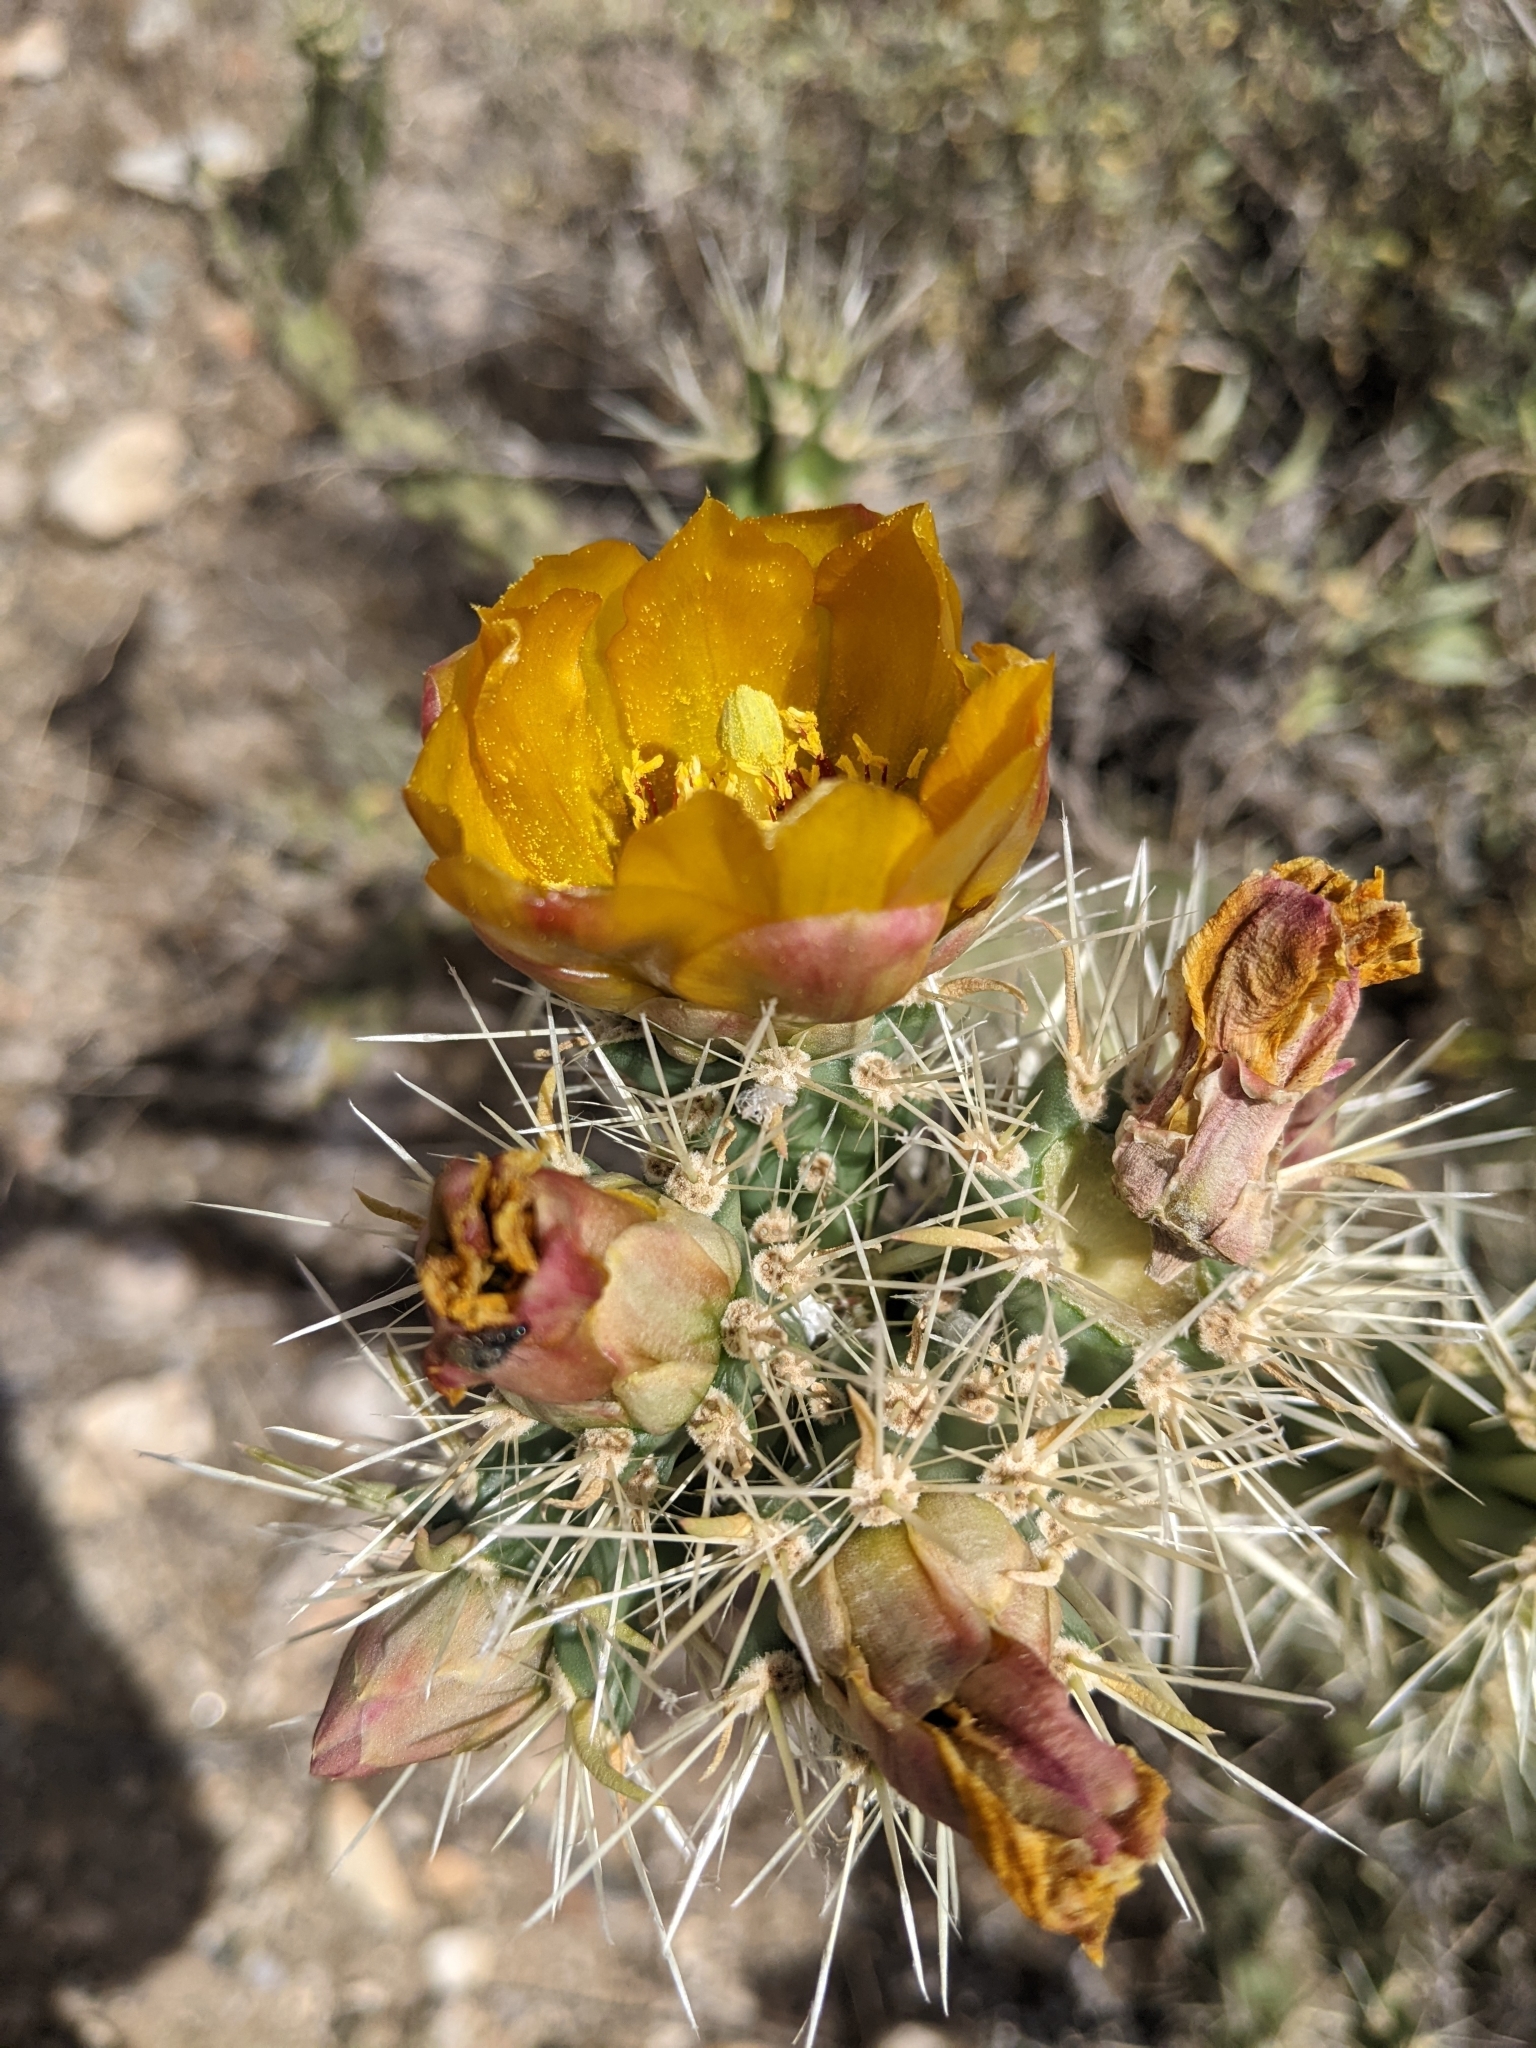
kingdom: Plantae
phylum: Tracheophyta
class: Magnoliopsida
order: Caryophyllales
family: Cactaceae
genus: Cylindropuntia
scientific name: Cylindropuntia acanthocarpa
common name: Buckhorn cholla
